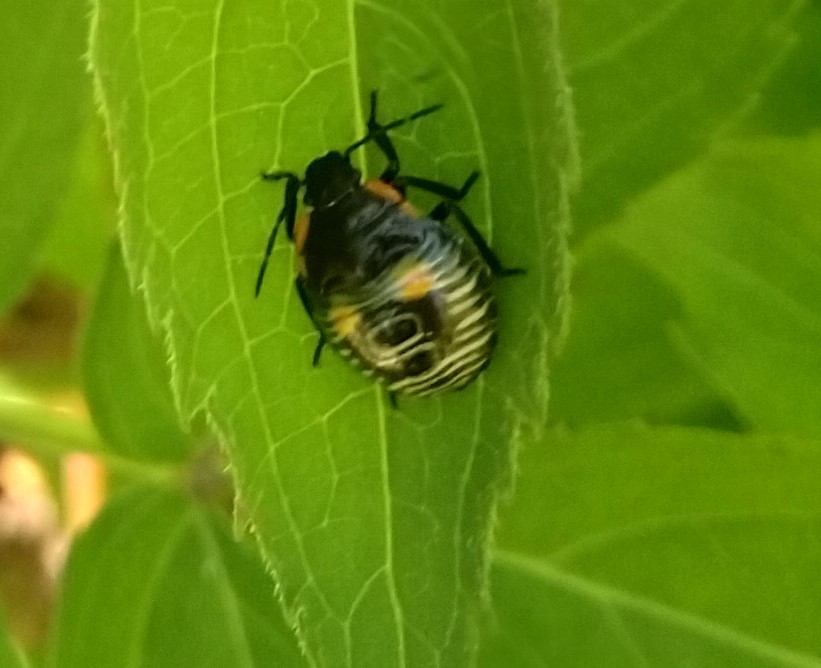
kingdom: Animalia
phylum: Arthropoda
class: Insecta
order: Hemiptera
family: Pentatomidae
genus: Chinavia
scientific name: Chinavia hilaris
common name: Green stink bug
